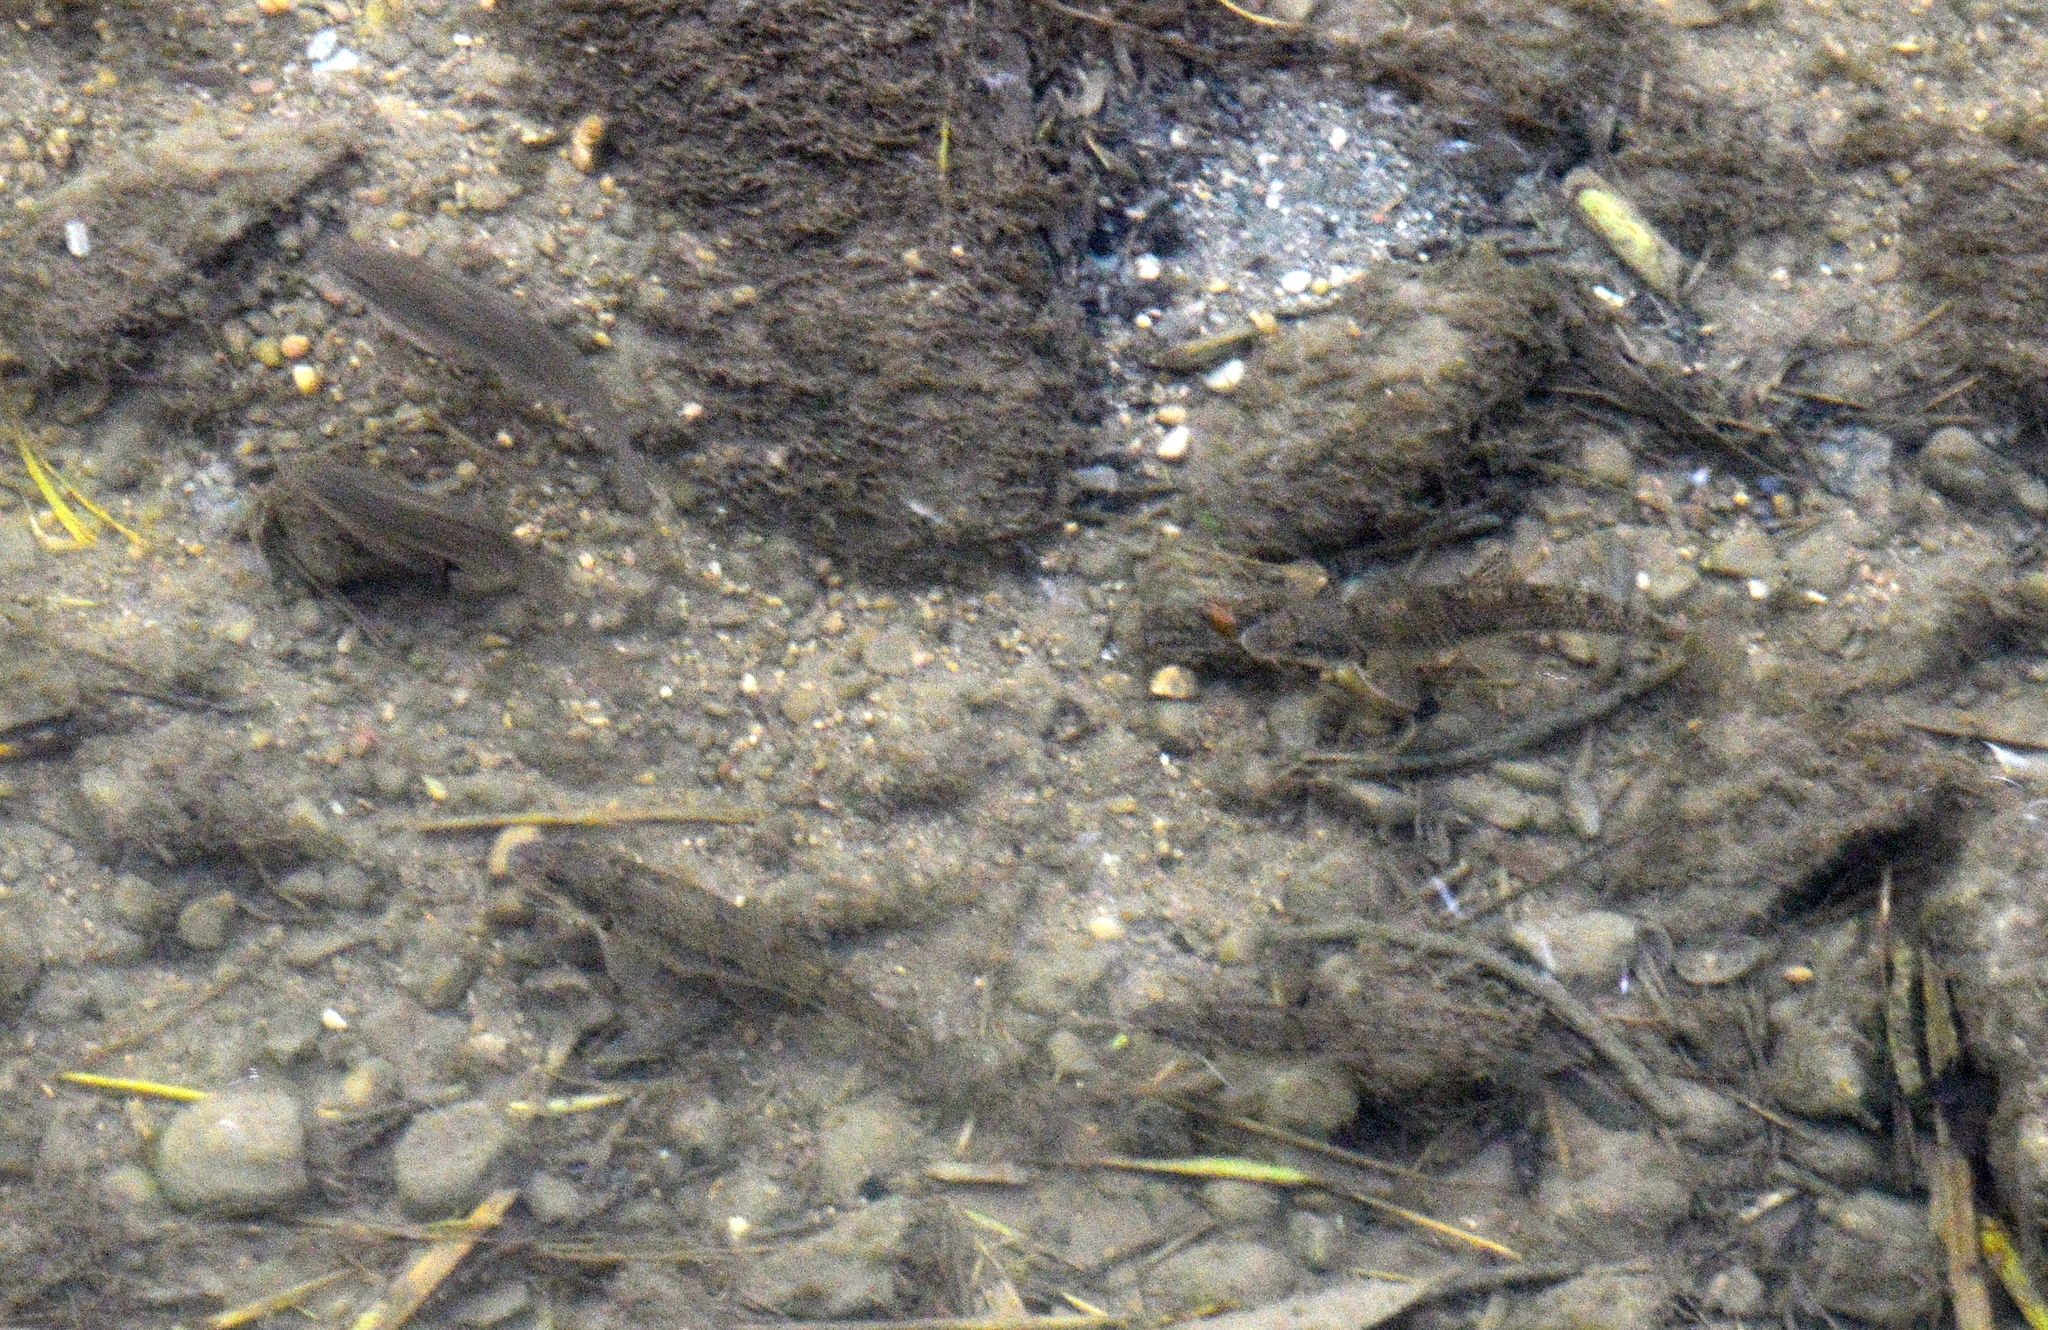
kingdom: Animalia
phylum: Chordata
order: Cypriniformes
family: Cyprinidae
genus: Gobio
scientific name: Gobio gobio
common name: Gudgeon
